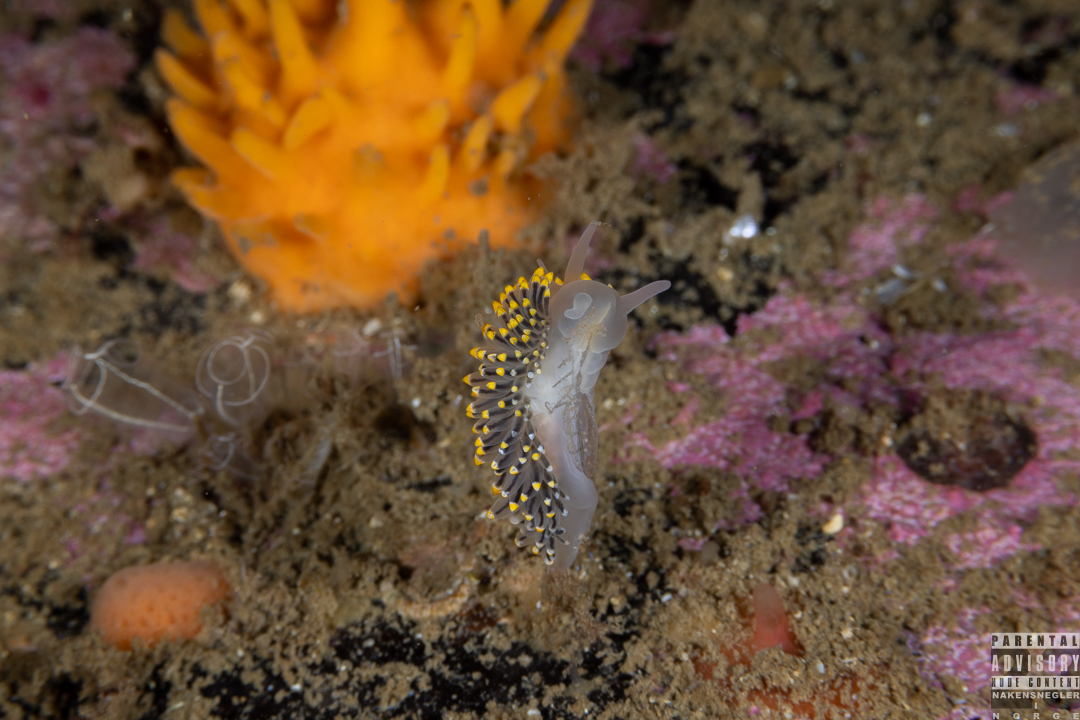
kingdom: Animalia
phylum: Mollusca
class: Gastropoda
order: Nudibranchia
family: Eubranchidae
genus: Eubranchus
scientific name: Eubranchus tricolor
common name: Painted balloon aeolis
